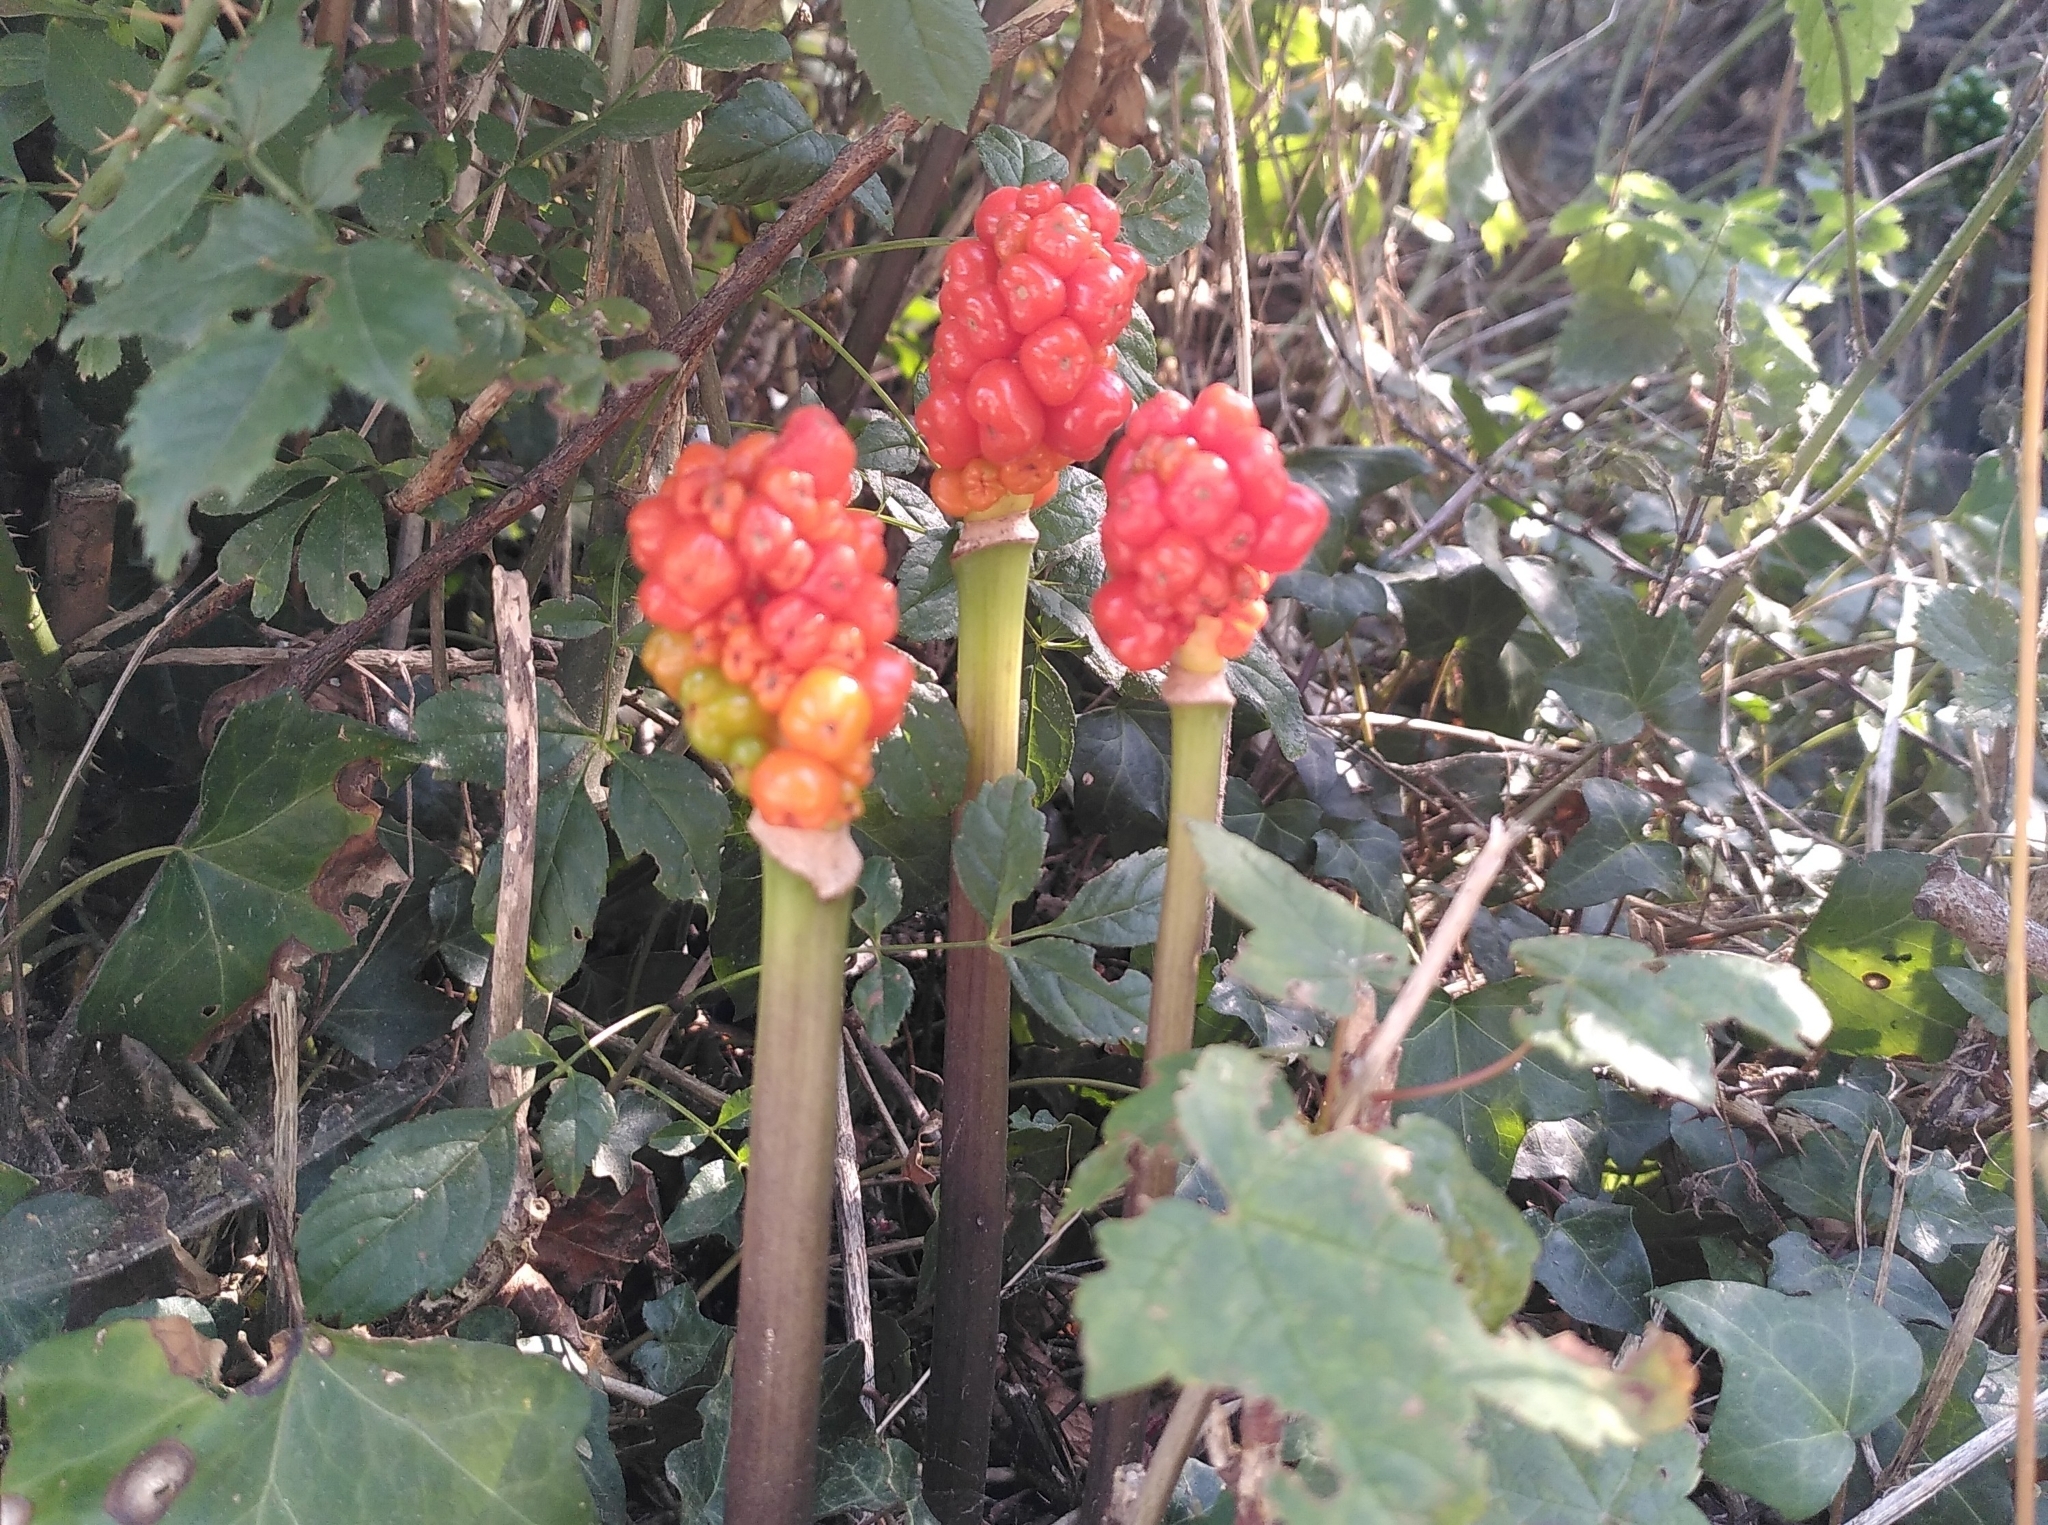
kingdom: Plantae
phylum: Tracheophyta
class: Liliopsida
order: Alismatales
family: Araceae
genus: Arum
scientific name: Arum maculatum
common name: Lords-and-ladies
